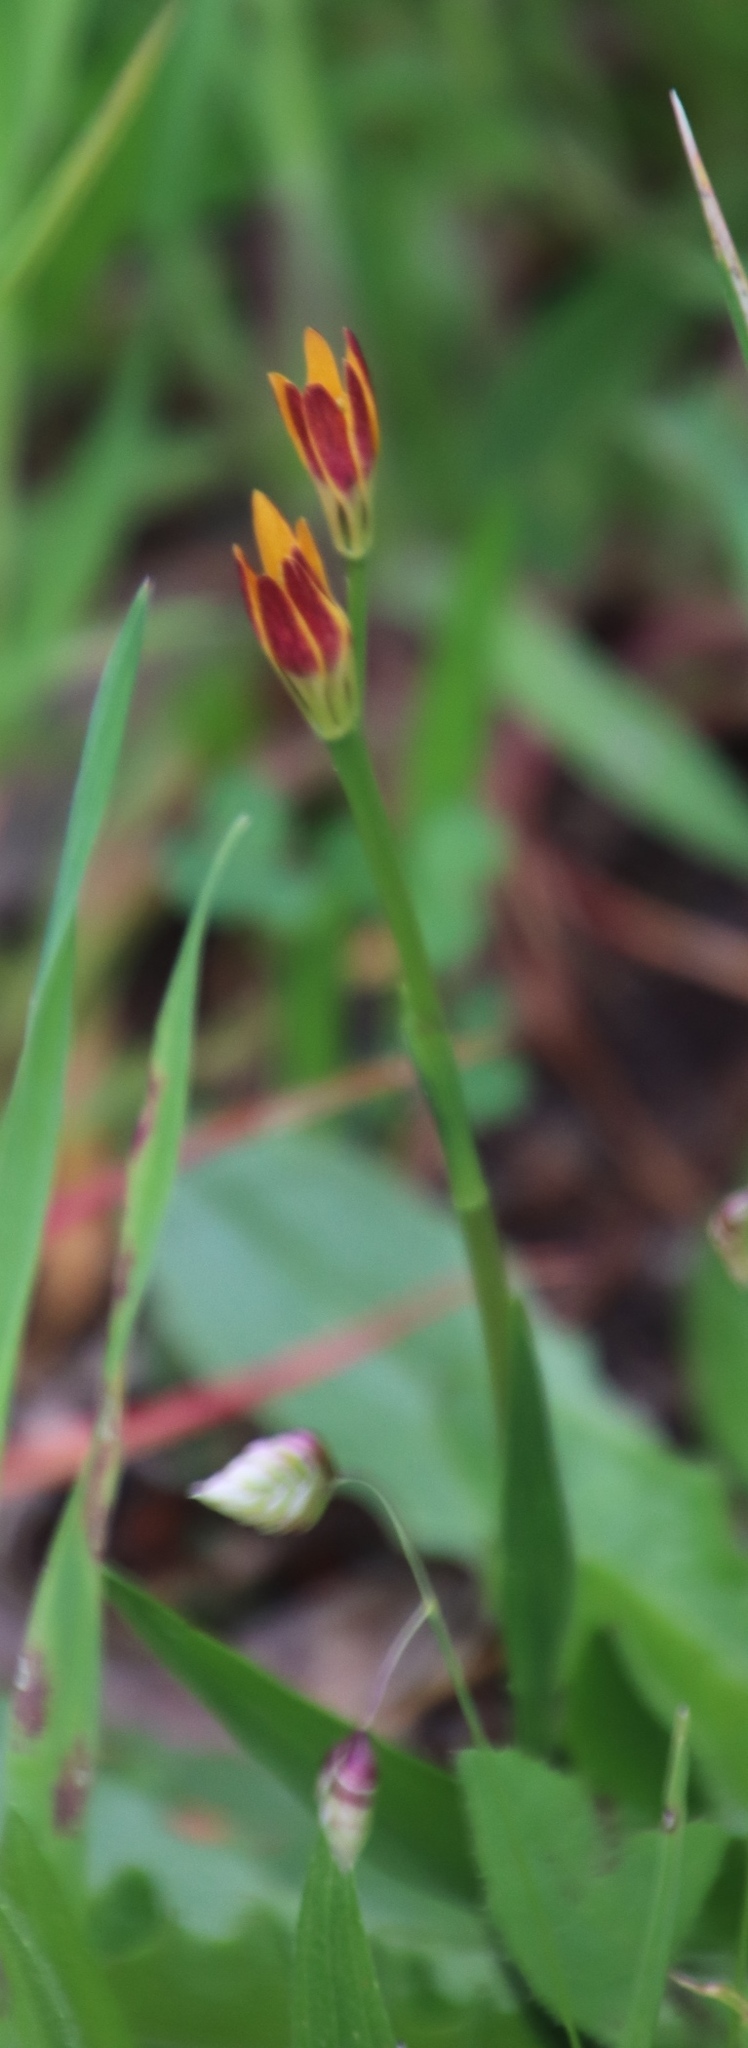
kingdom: Plantae
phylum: Tracheophyta
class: Liliopsida
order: Liliales
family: Colchicaceae
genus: Baeometra
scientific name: Baeometra uniflora
